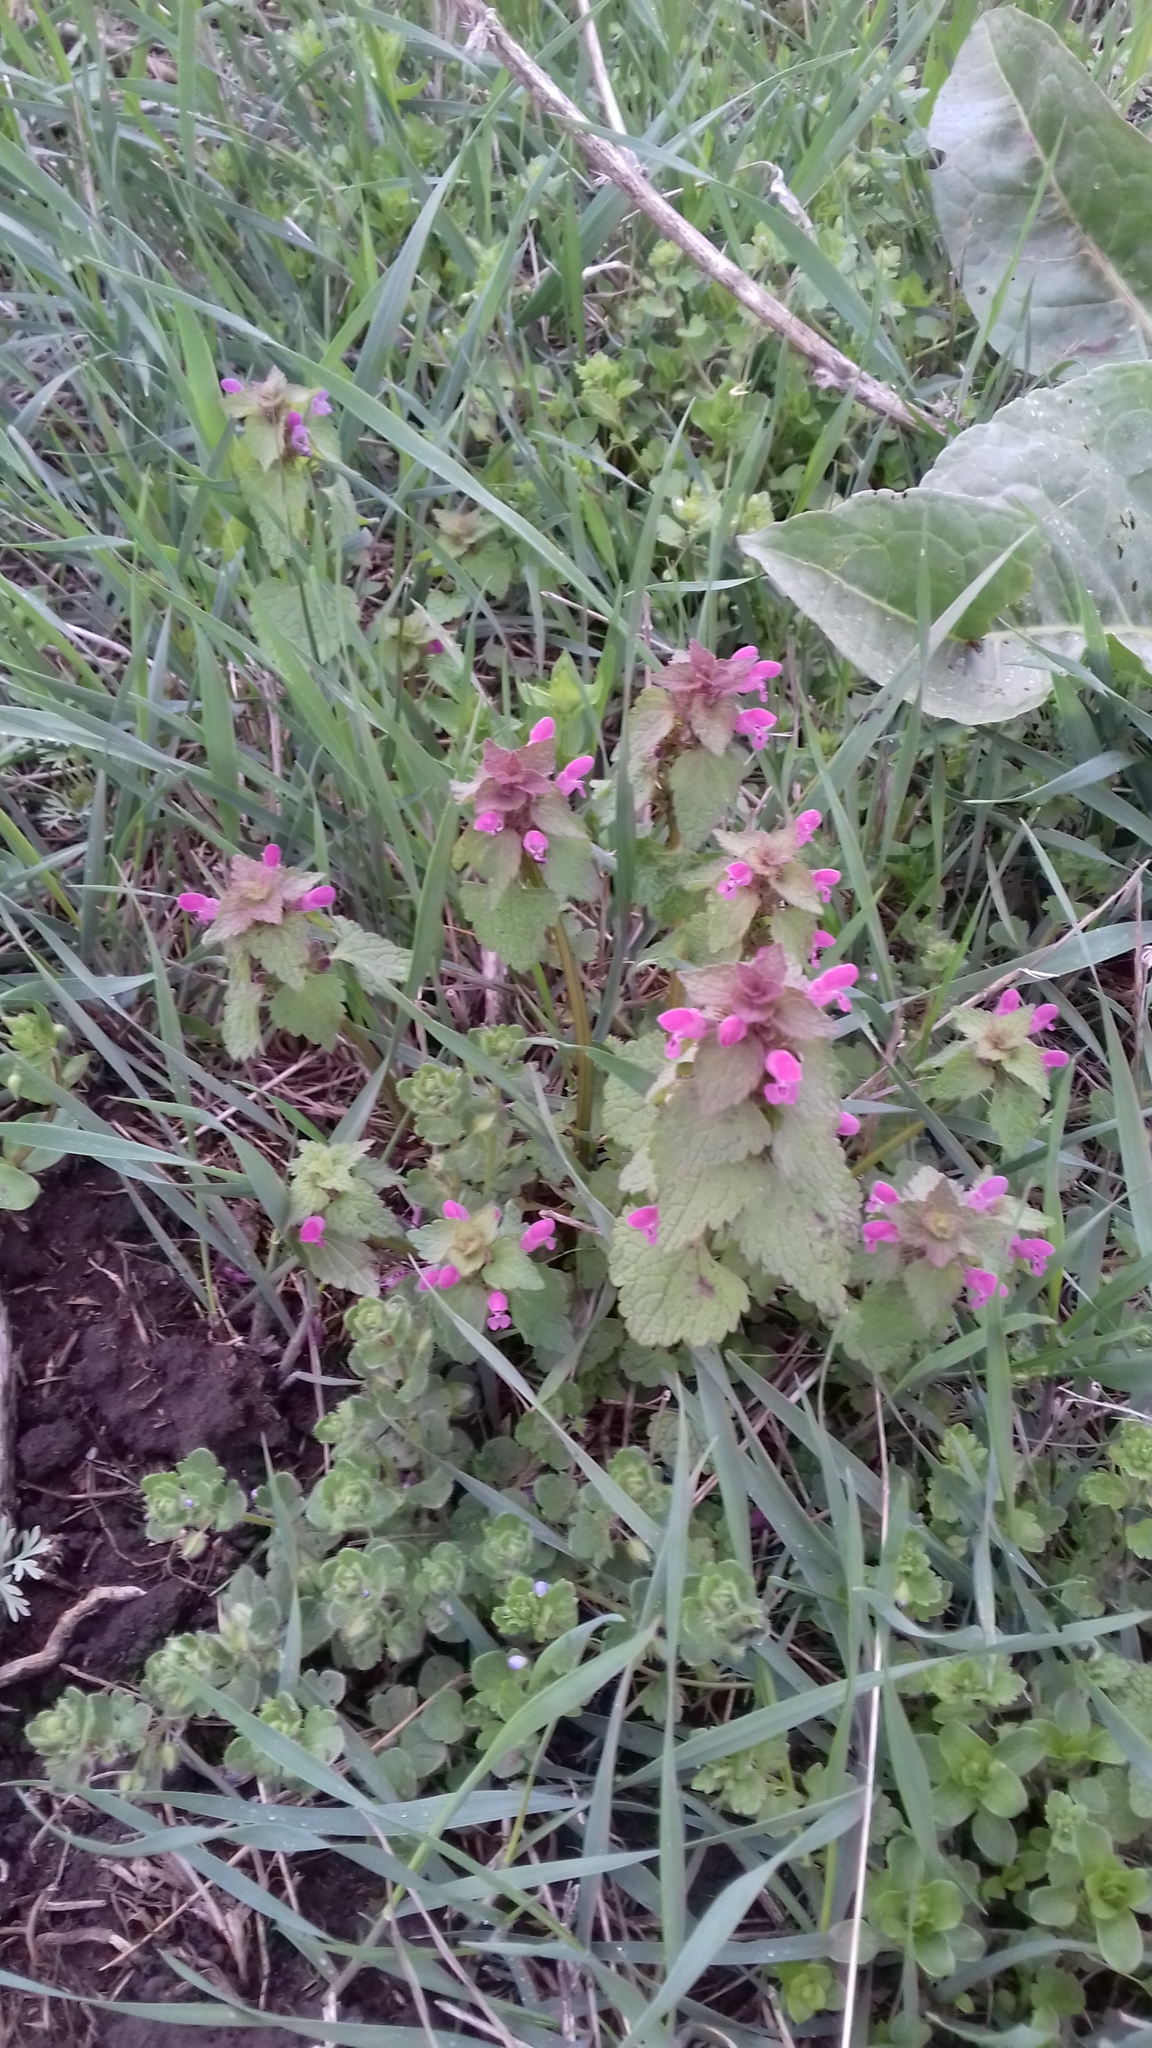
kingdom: Plantae
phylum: Tracheophyta
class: Magnoliopsida
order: Lamiales
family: Lamiaceae
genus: Lamium
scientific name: Lamium purpureum
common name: Red dead-nettle
